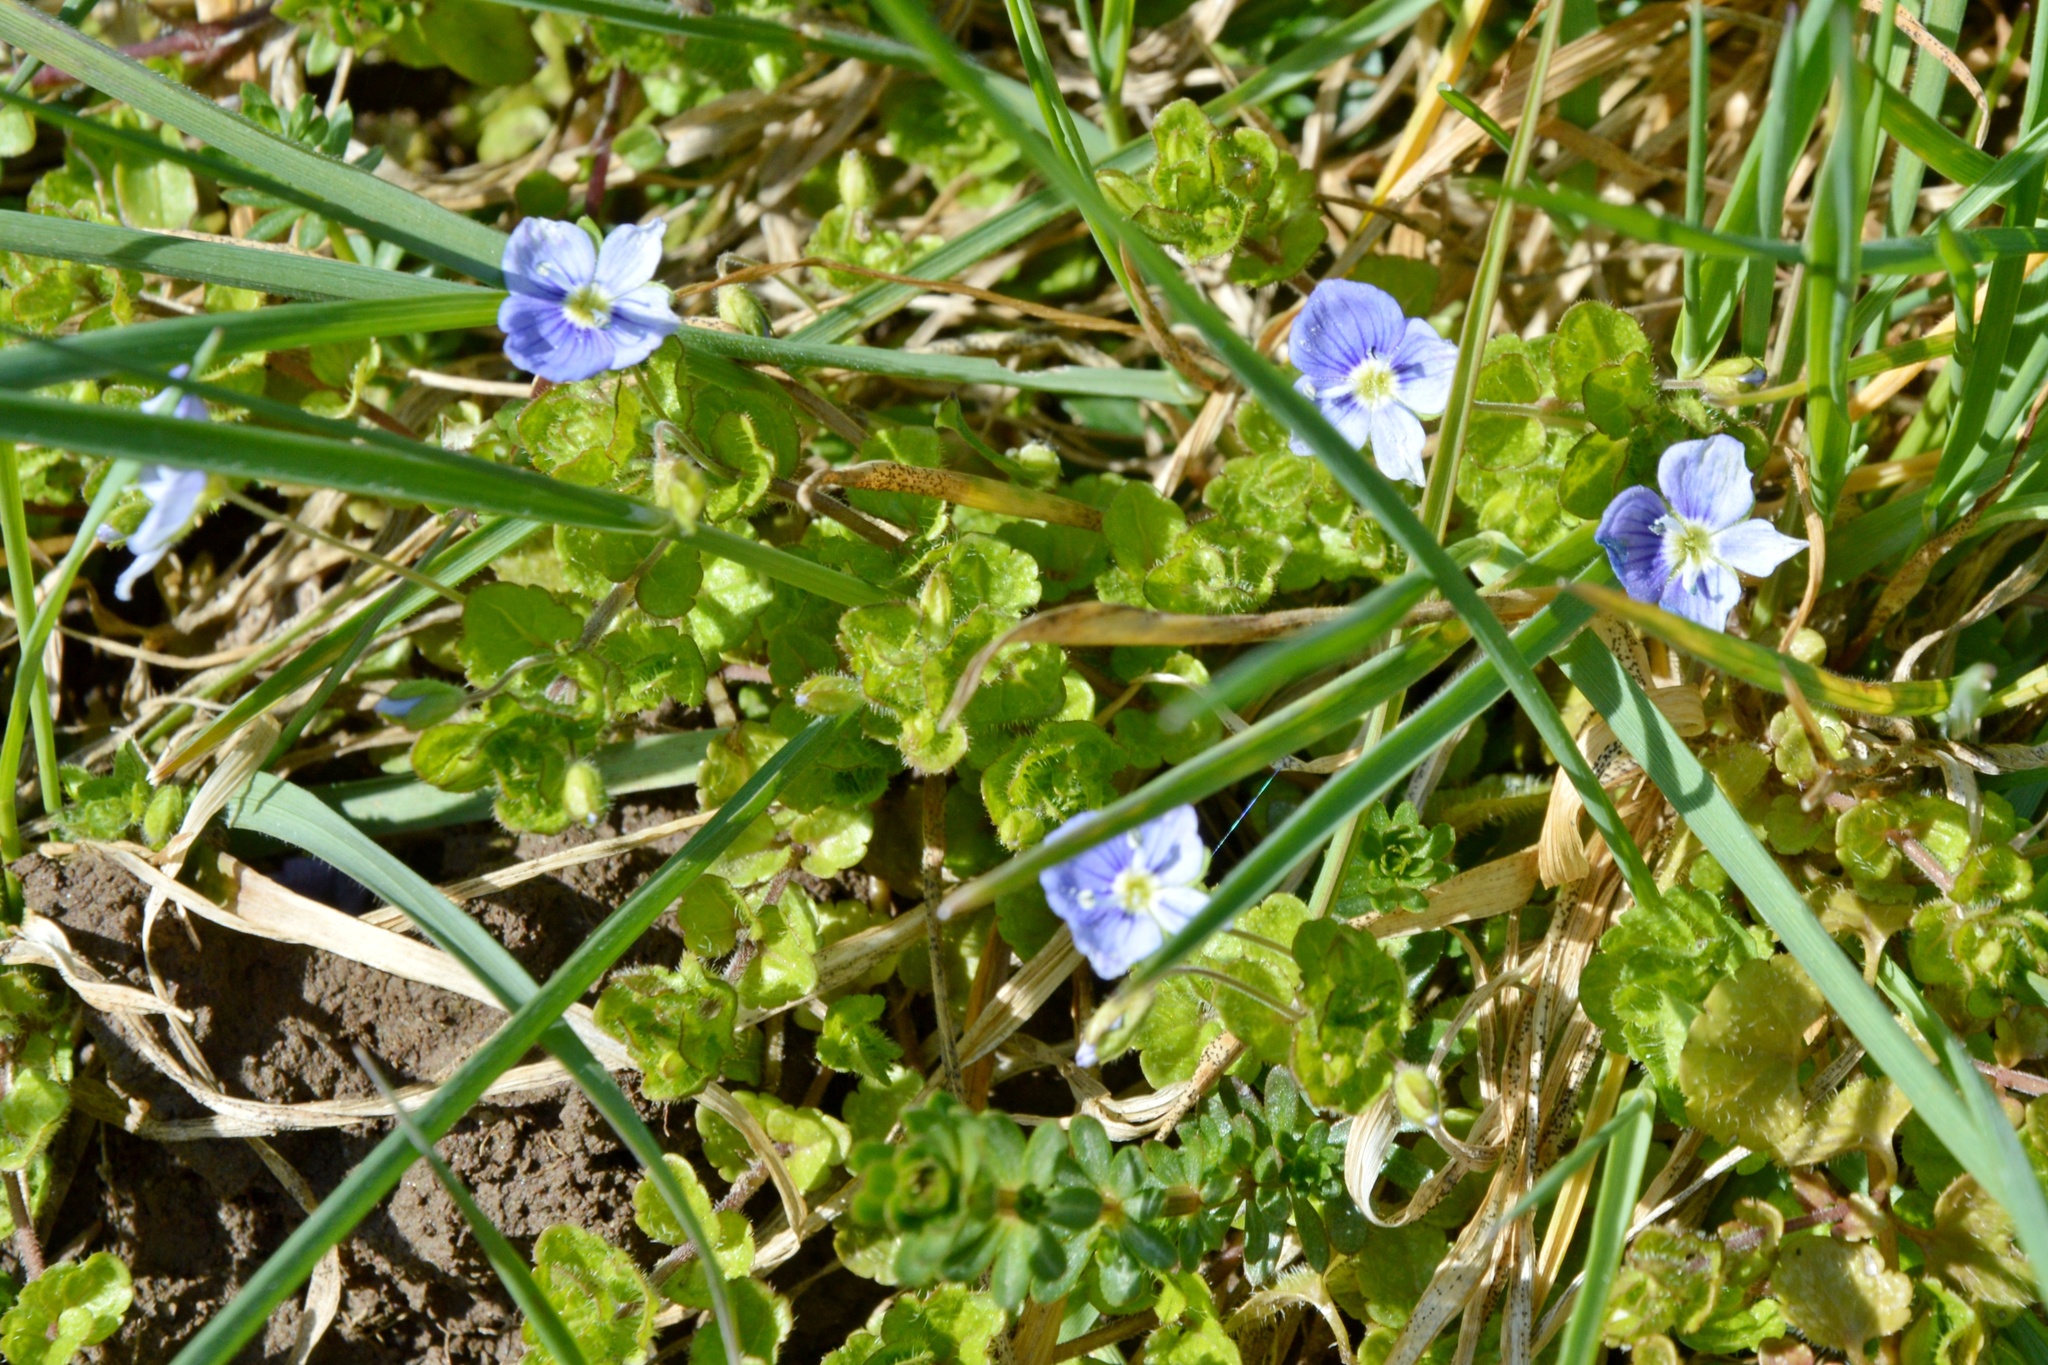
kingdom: Plantae
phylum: Tracheophyta
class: Magnoliopsida
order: Lamiales
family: Plantaginaceae
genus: Veronica
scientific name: Veronica filiformis
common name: Slender speedwell
